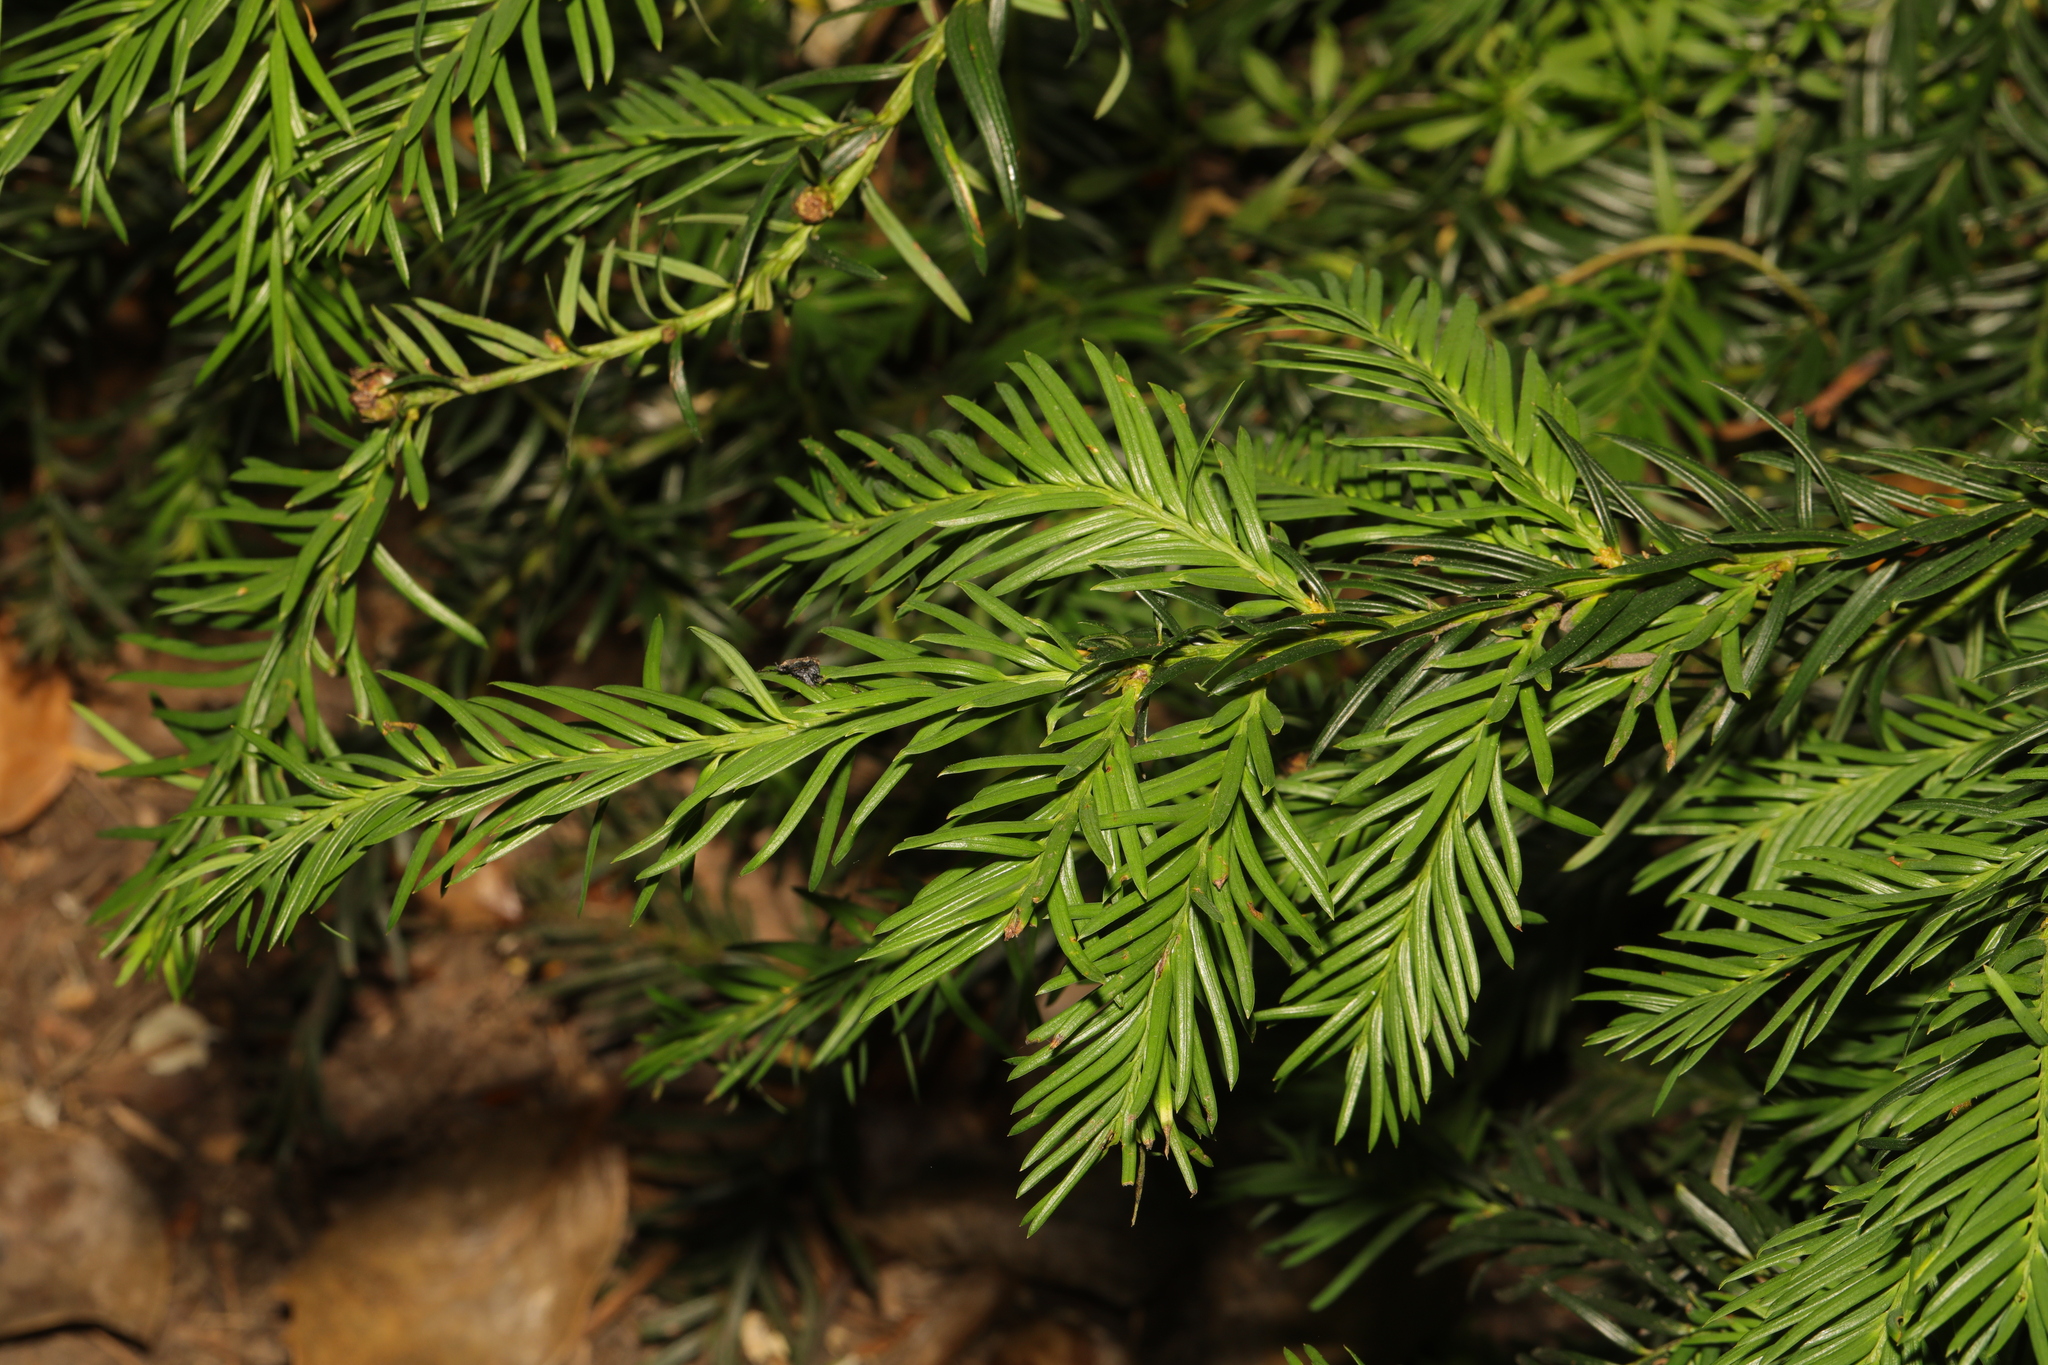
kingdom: Plantae
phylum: Tracheophyta
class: Pinopsida
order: Pinales
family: Taxaceae
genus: Taxus
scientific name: Taxus baccata
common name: Yew
